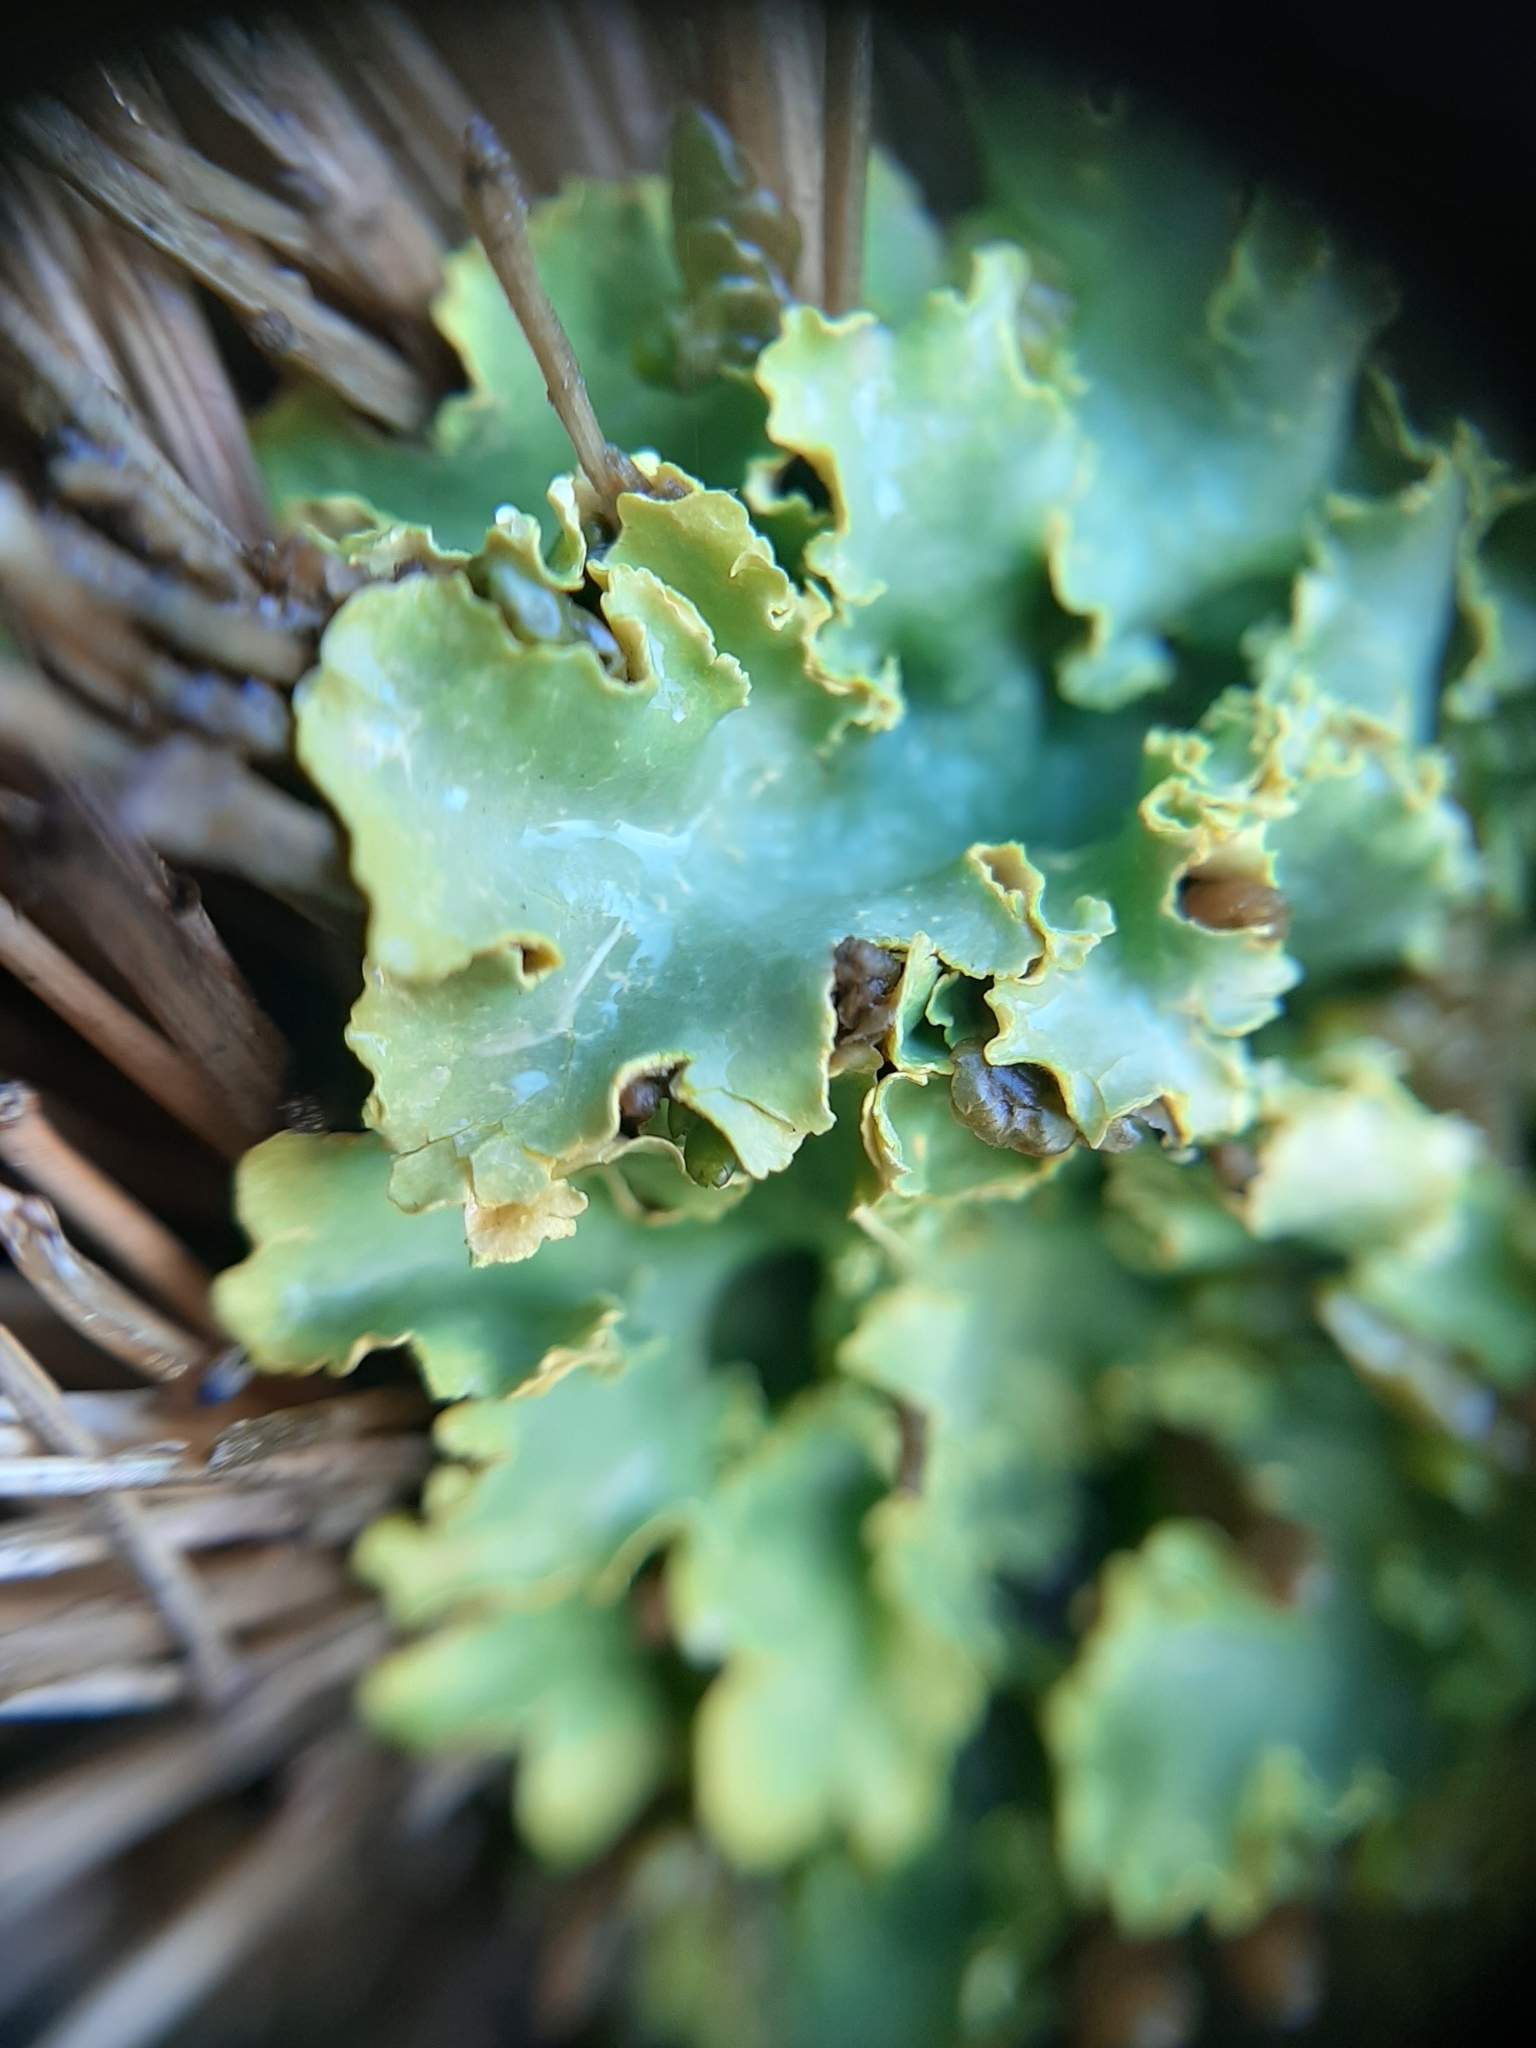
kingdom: Fungi
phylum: Ascomycota
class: Lecanoromycetes
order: Peltigerales
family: Lobariaceae
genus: Podostictina
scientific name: Podostictina pickeringii
